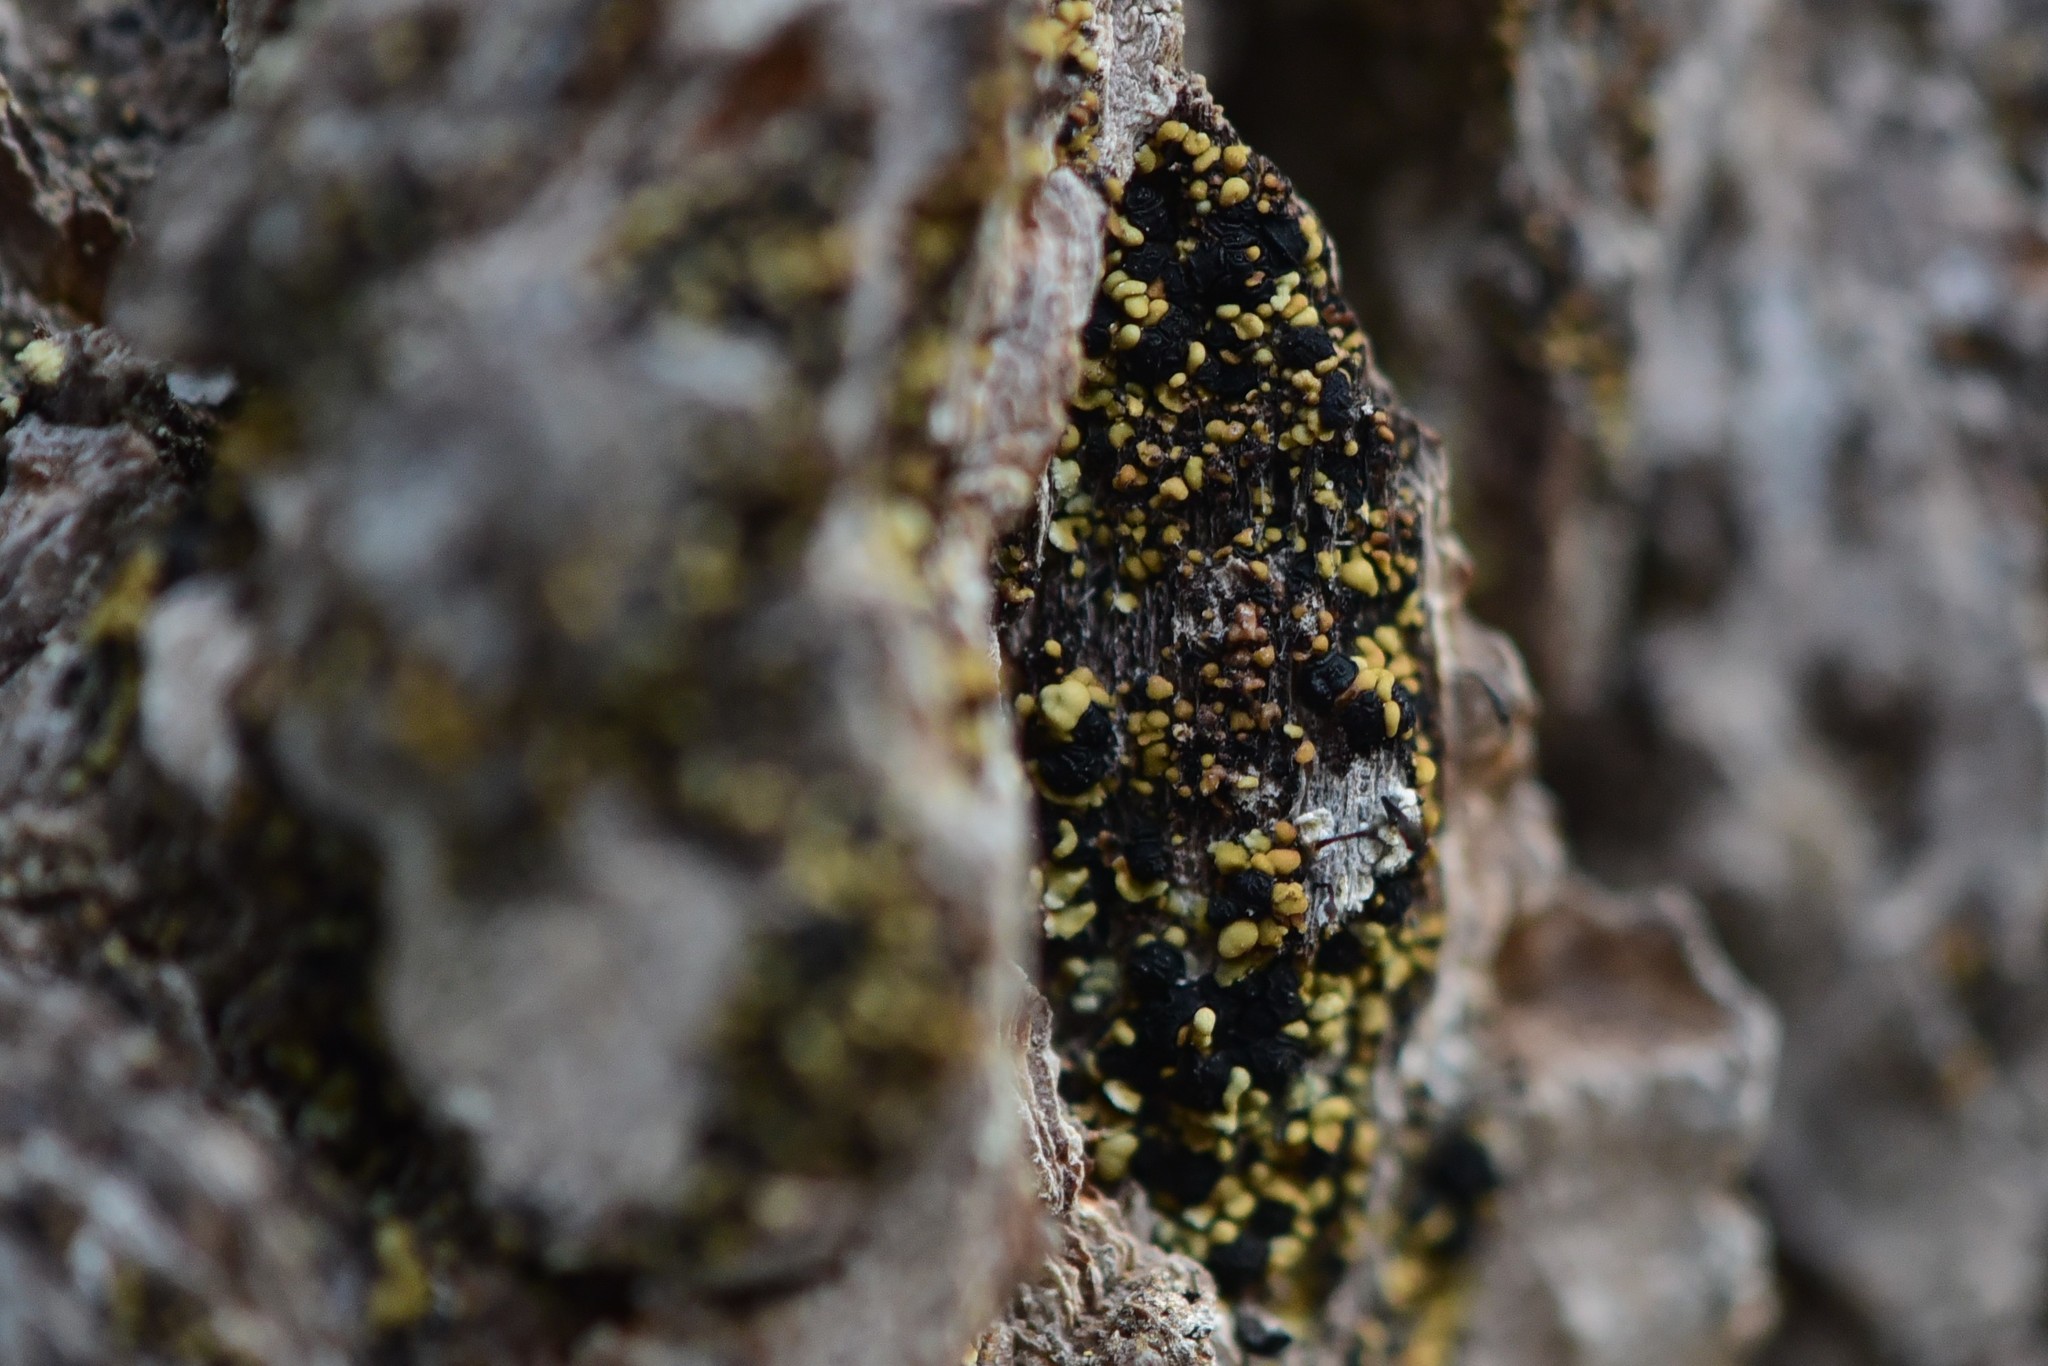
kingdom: Fungi
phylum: Ascomycota
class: Lecanoromycetes
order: Umbilicariales
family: Umbilicariaceae
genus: Xylopsora
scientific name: Xylopsora friesii
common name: Old-growth clam lichen
